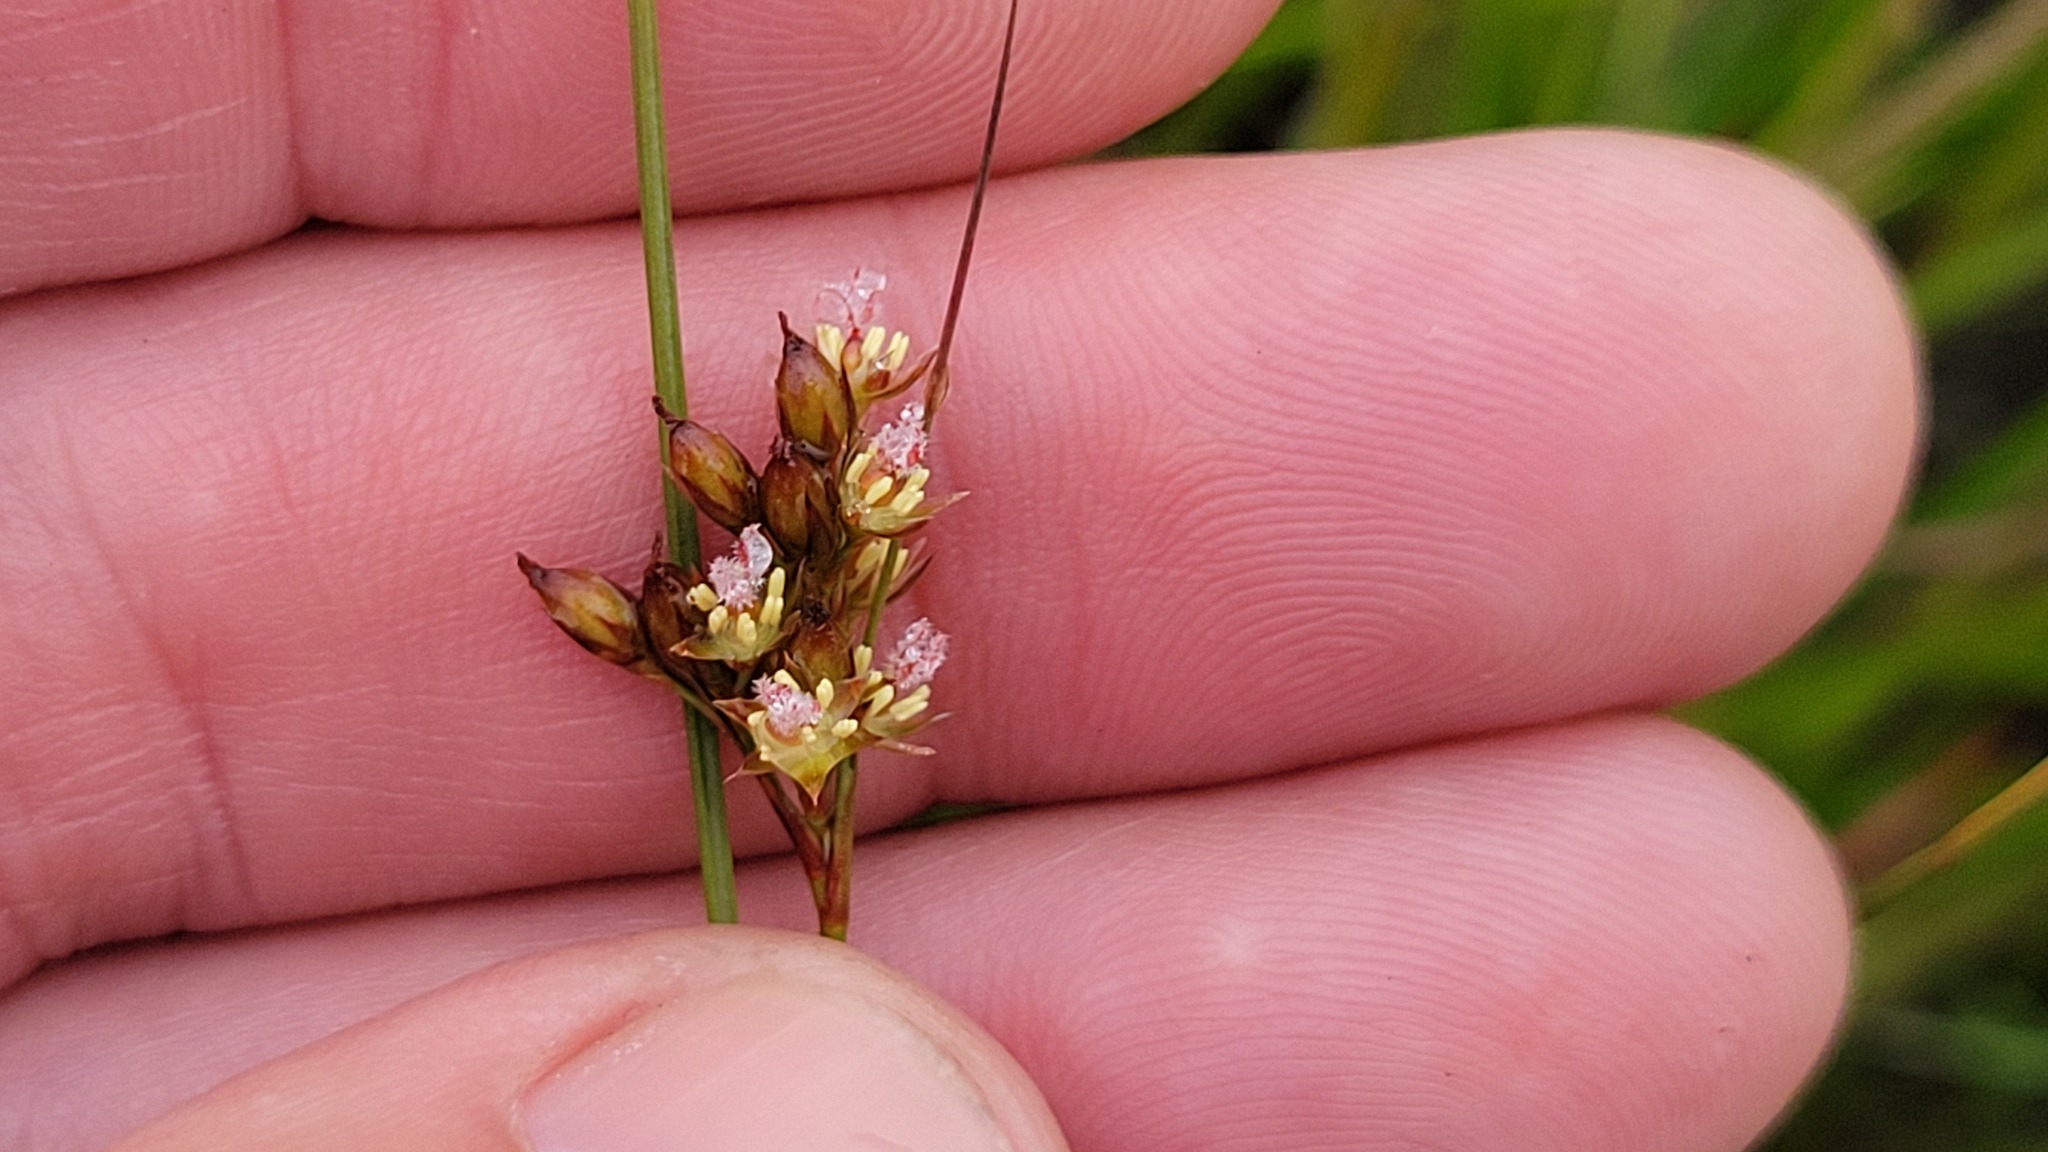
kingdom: Plantae
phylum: Tracheophyta
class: Liliopsida
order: Poales
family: Juncaceae
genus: Juncus
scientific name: Juncus greenei
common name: Greene's rush
